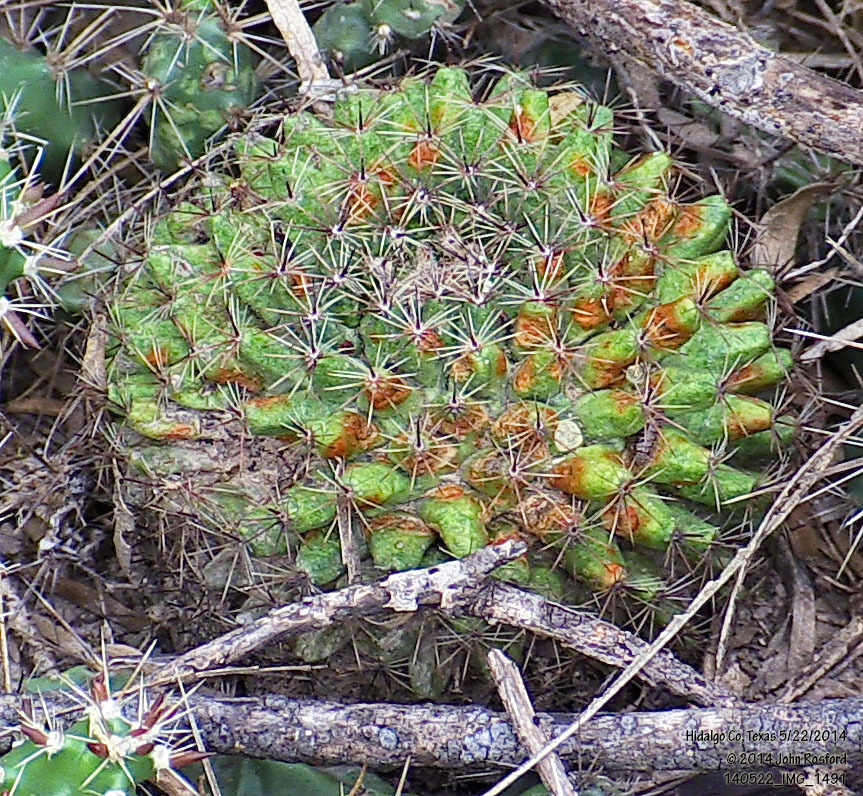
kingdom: Plantae
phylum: Tracheophyta
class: Magnoliopsida
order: Caryophyllales
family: Cactaceae
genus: Mammillaria
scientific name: Mammillaria heyderi
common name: Little nipple cactus
